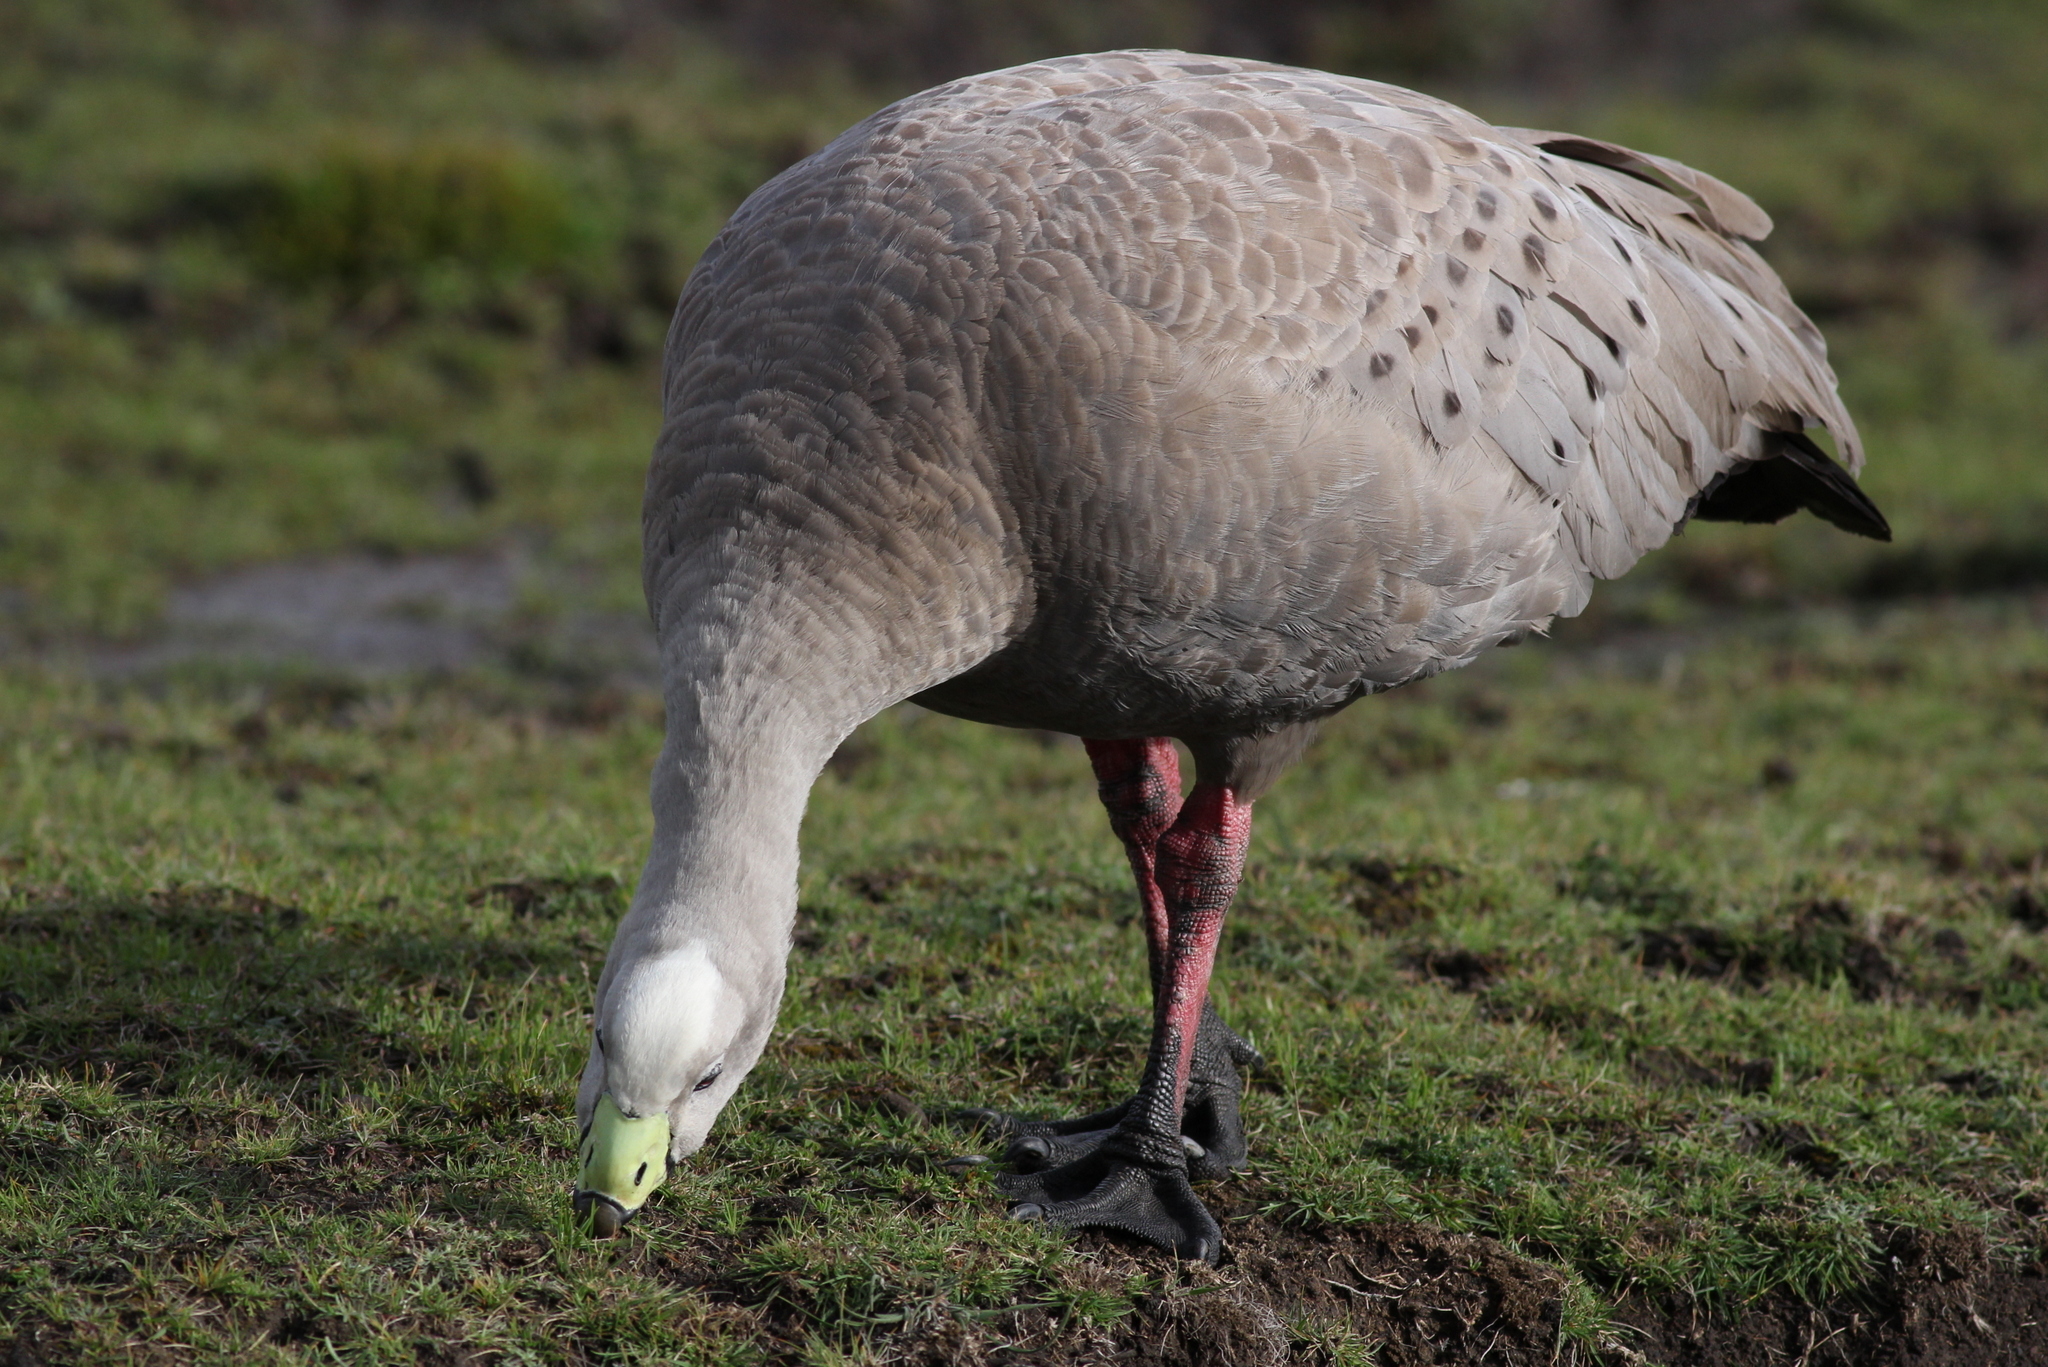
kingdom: Animalia
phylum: Chordata
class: Aves
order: Anseriformes
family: Anatidae
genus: Cereopsis
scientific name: Cereopsis novaehollandiae
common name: Cape barren goose
